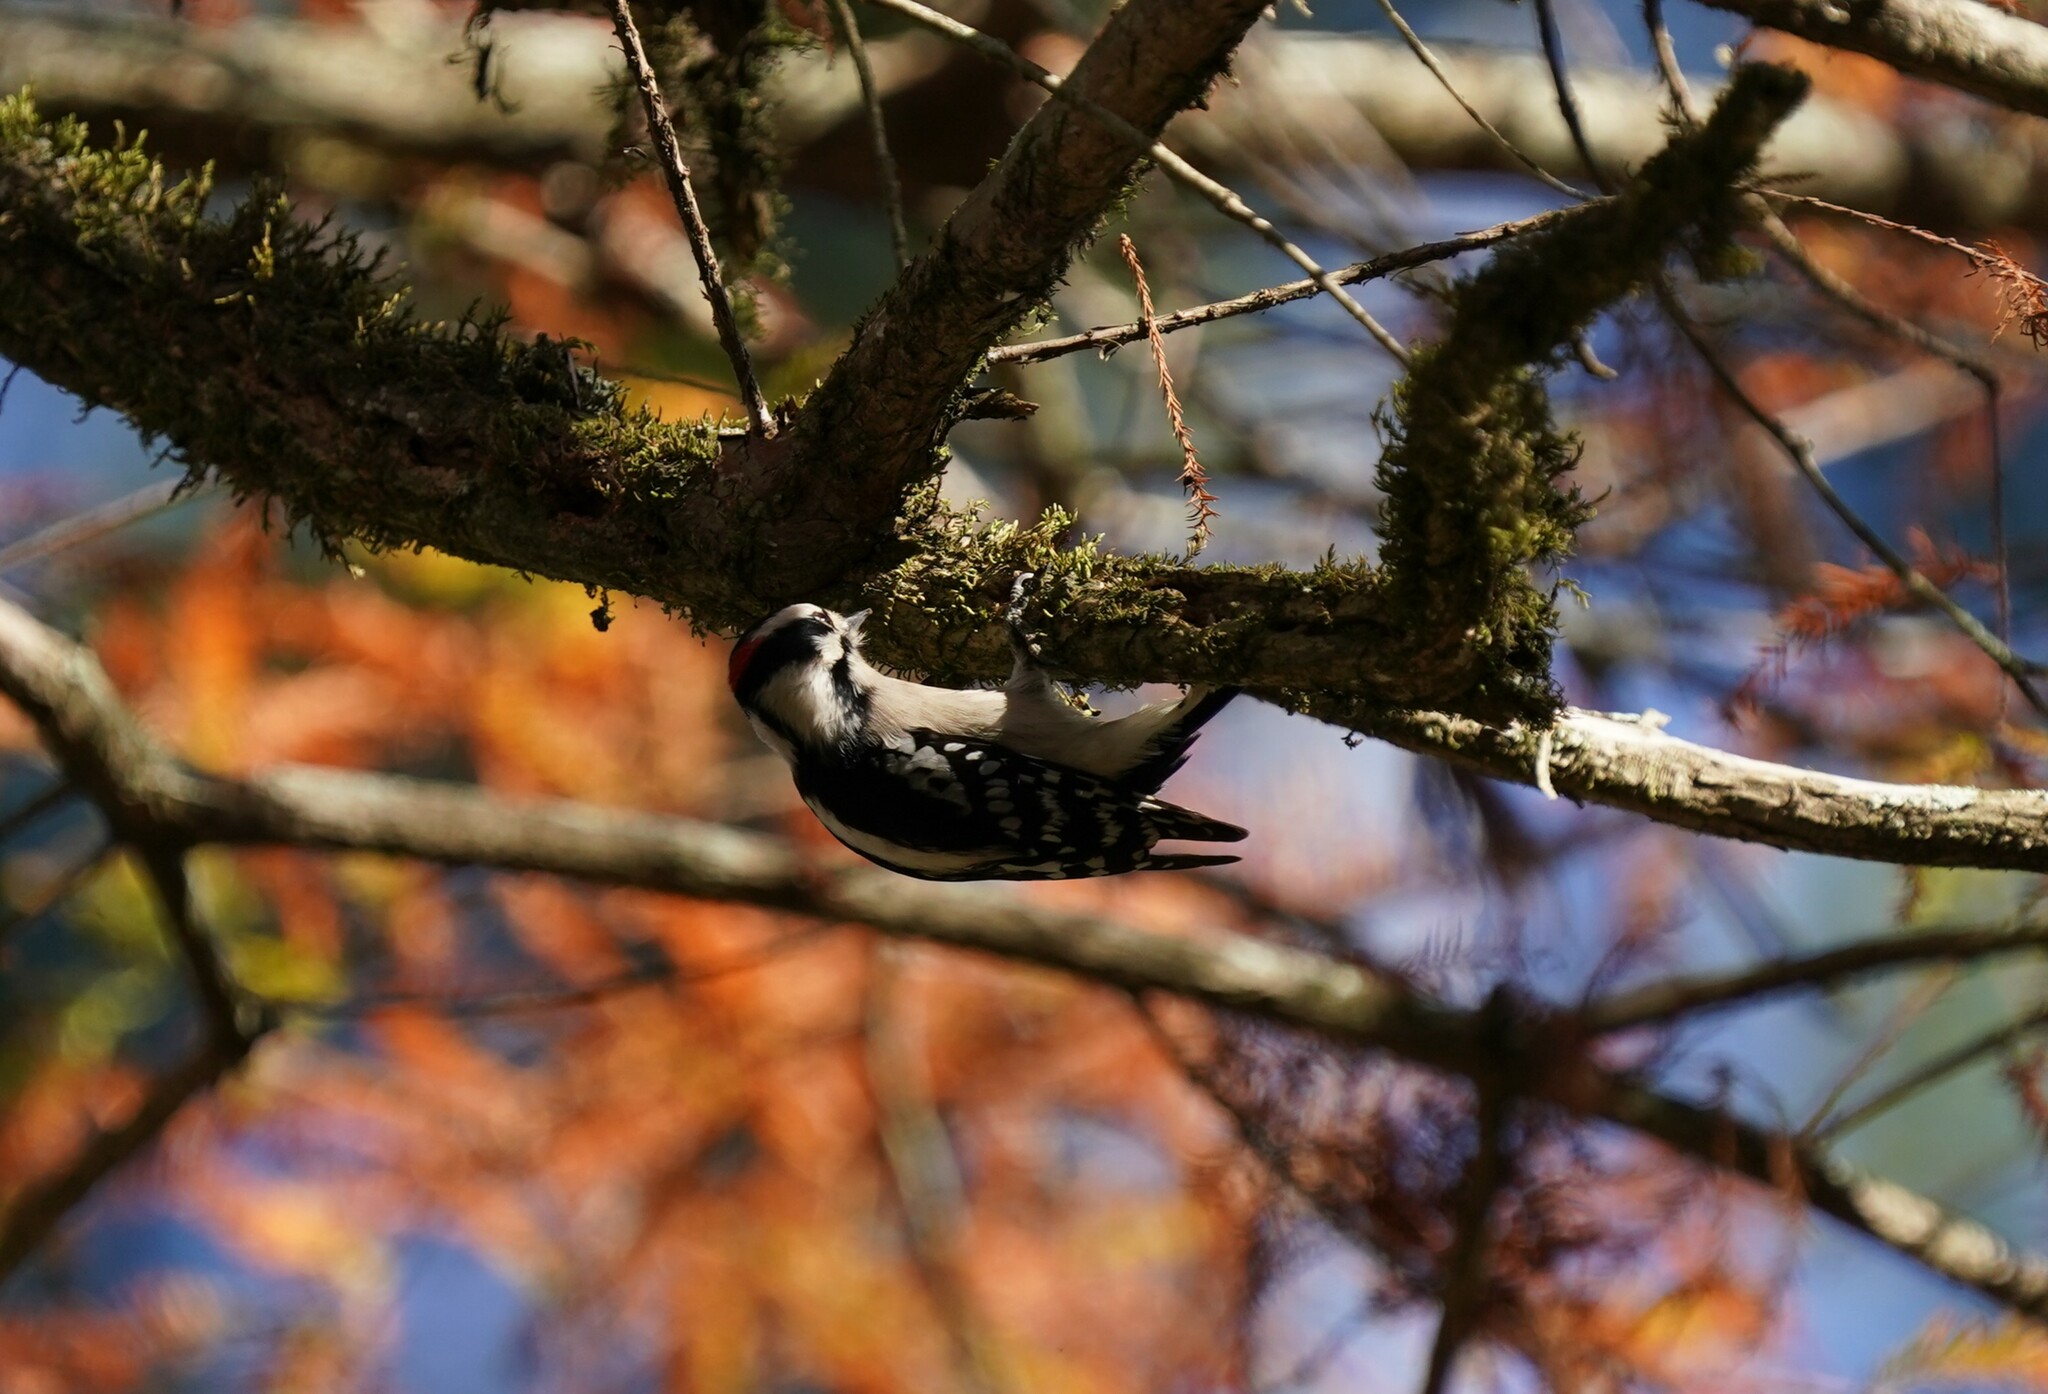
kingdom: Animalia
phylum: Chordata
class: Aves
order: Piciformes
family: Picidae
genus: Dryobates
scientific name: Dryobates pubescens
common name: Downy woodpecker
